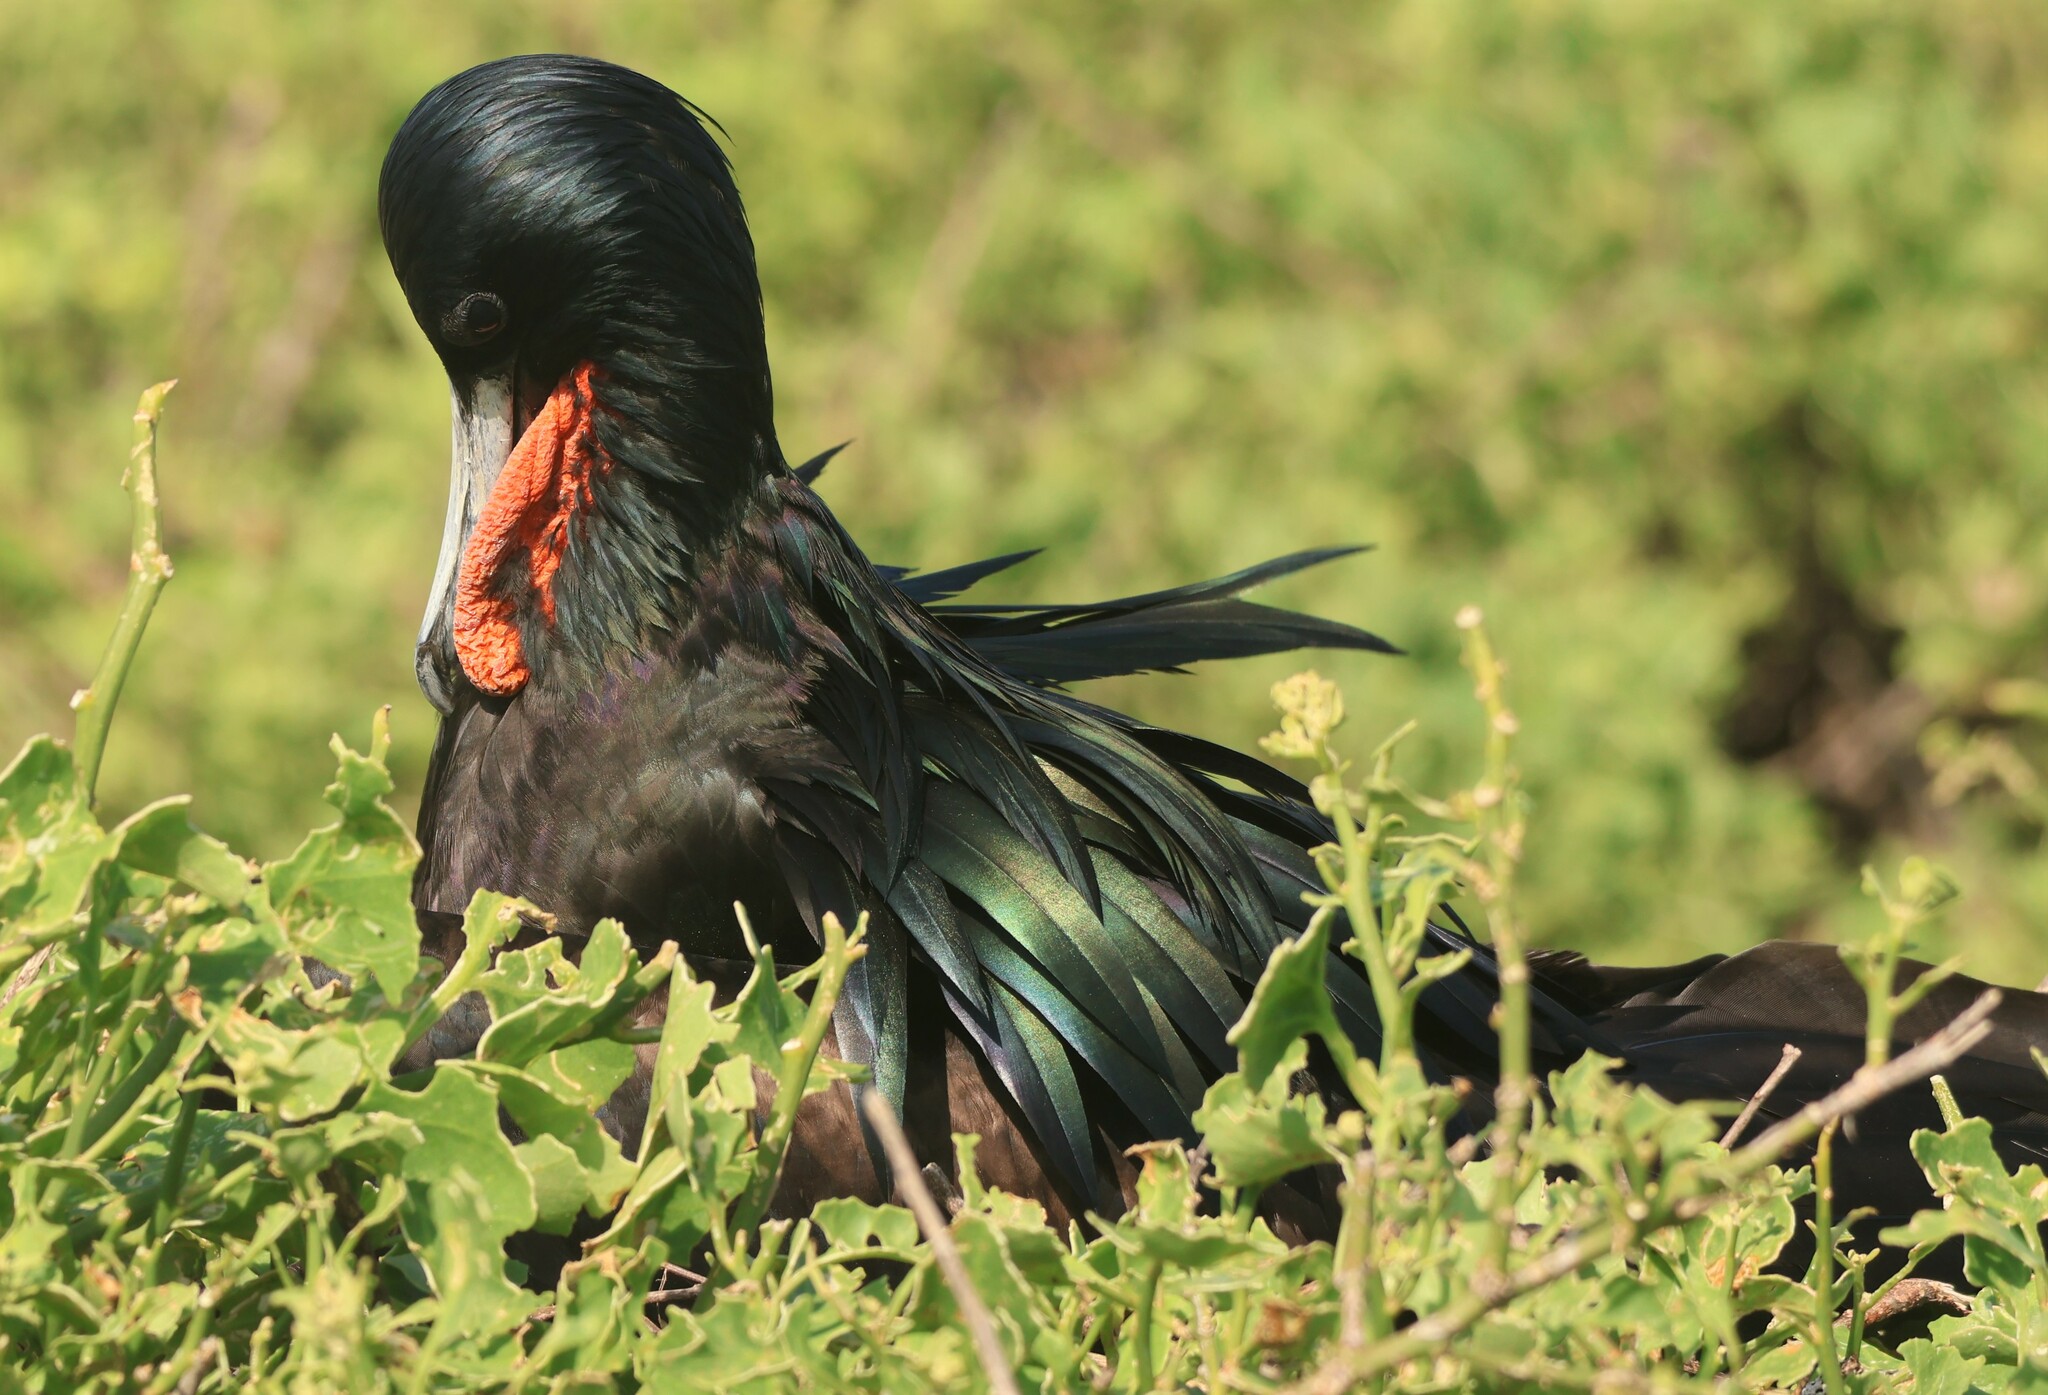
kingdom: Animalia
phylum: Chordata
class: Aves
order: Suliformes
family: Fregatidae
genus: Fregata
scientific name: Fregata minor
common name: Great frigatebird
